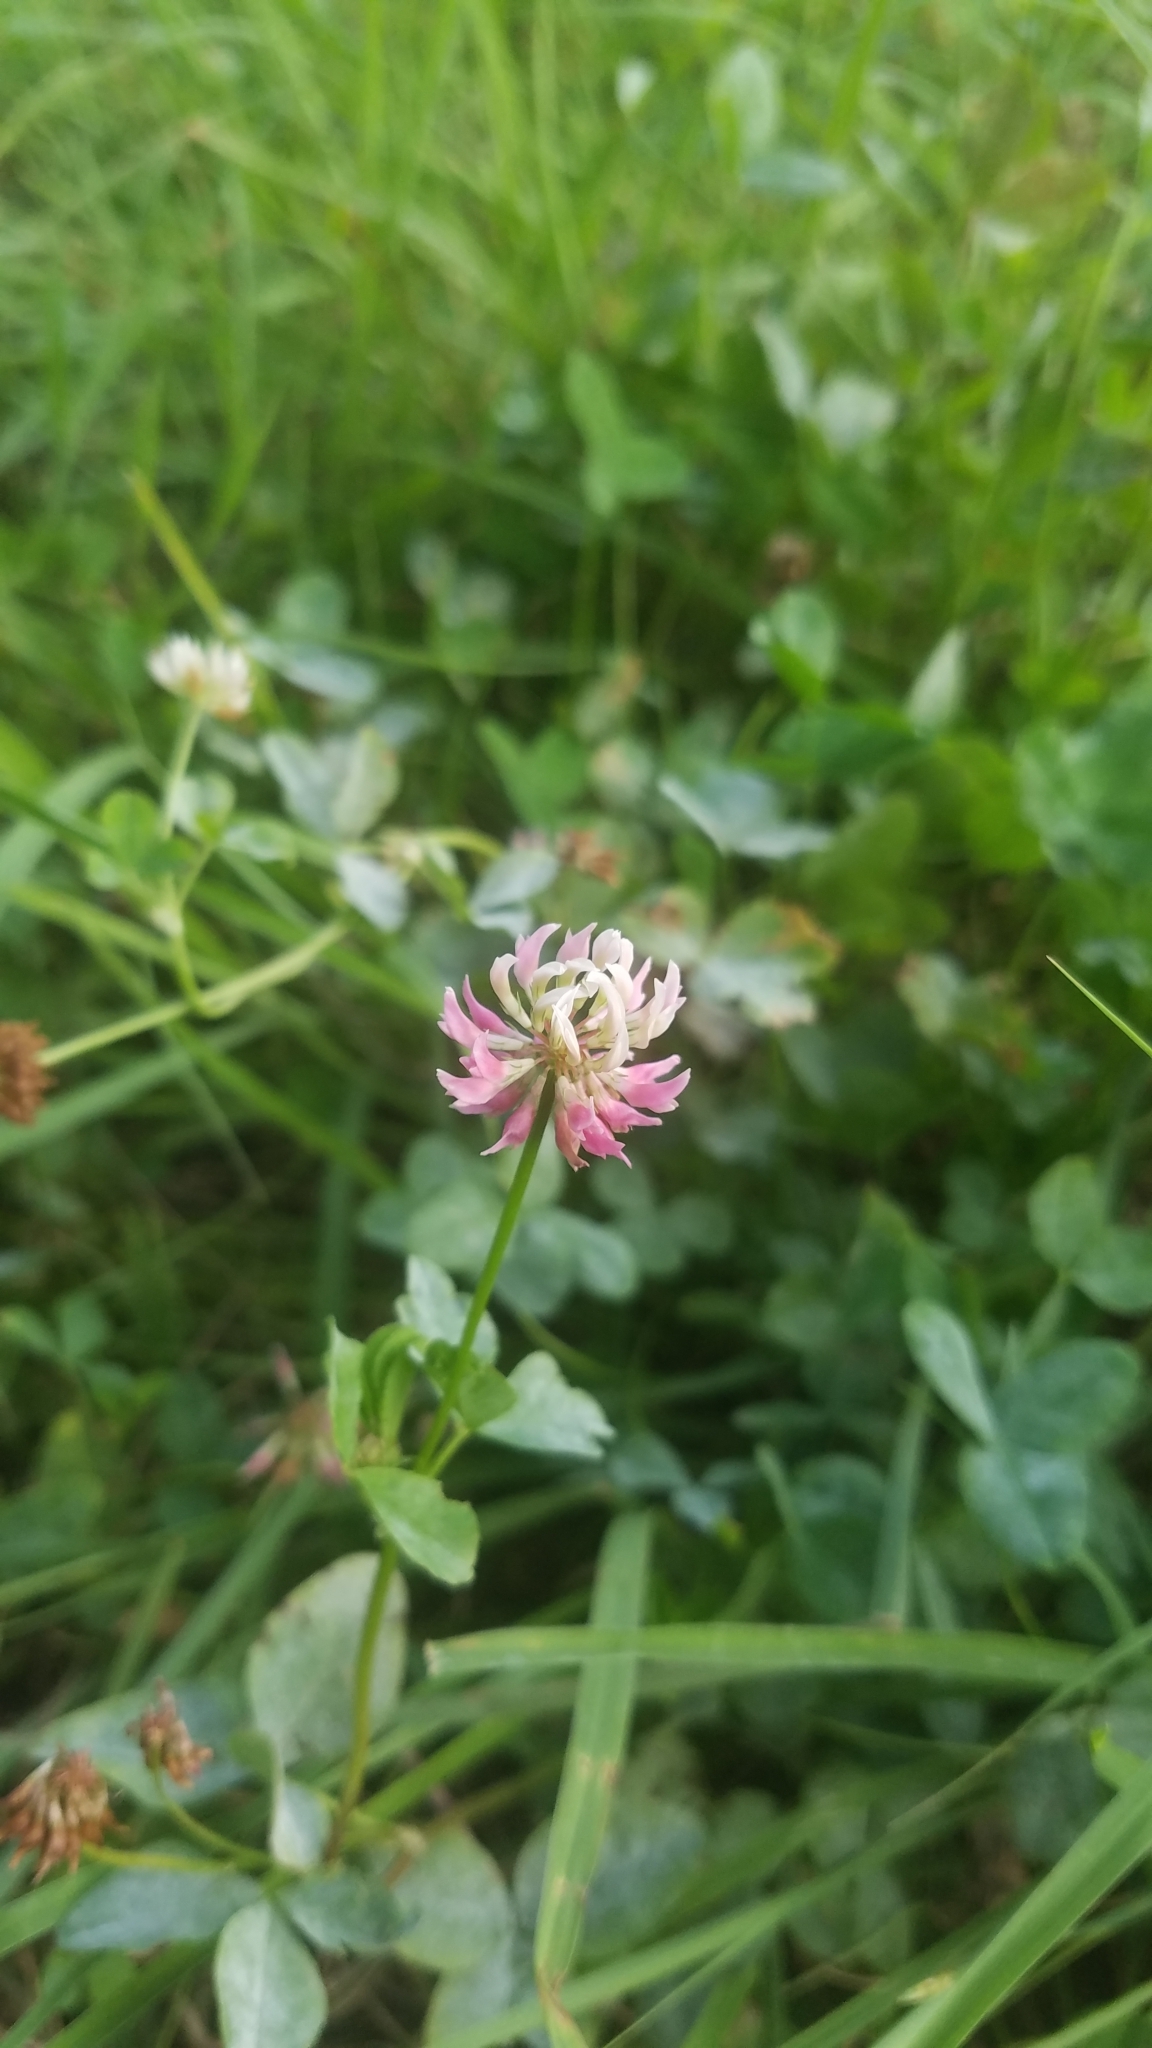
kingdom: Plantae
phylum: Tracheophyta
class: Magnoliopsida
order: Fabales
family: Fabaceae
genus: Trifolium
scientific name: Trifolium hybridum
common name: Alsike clover
